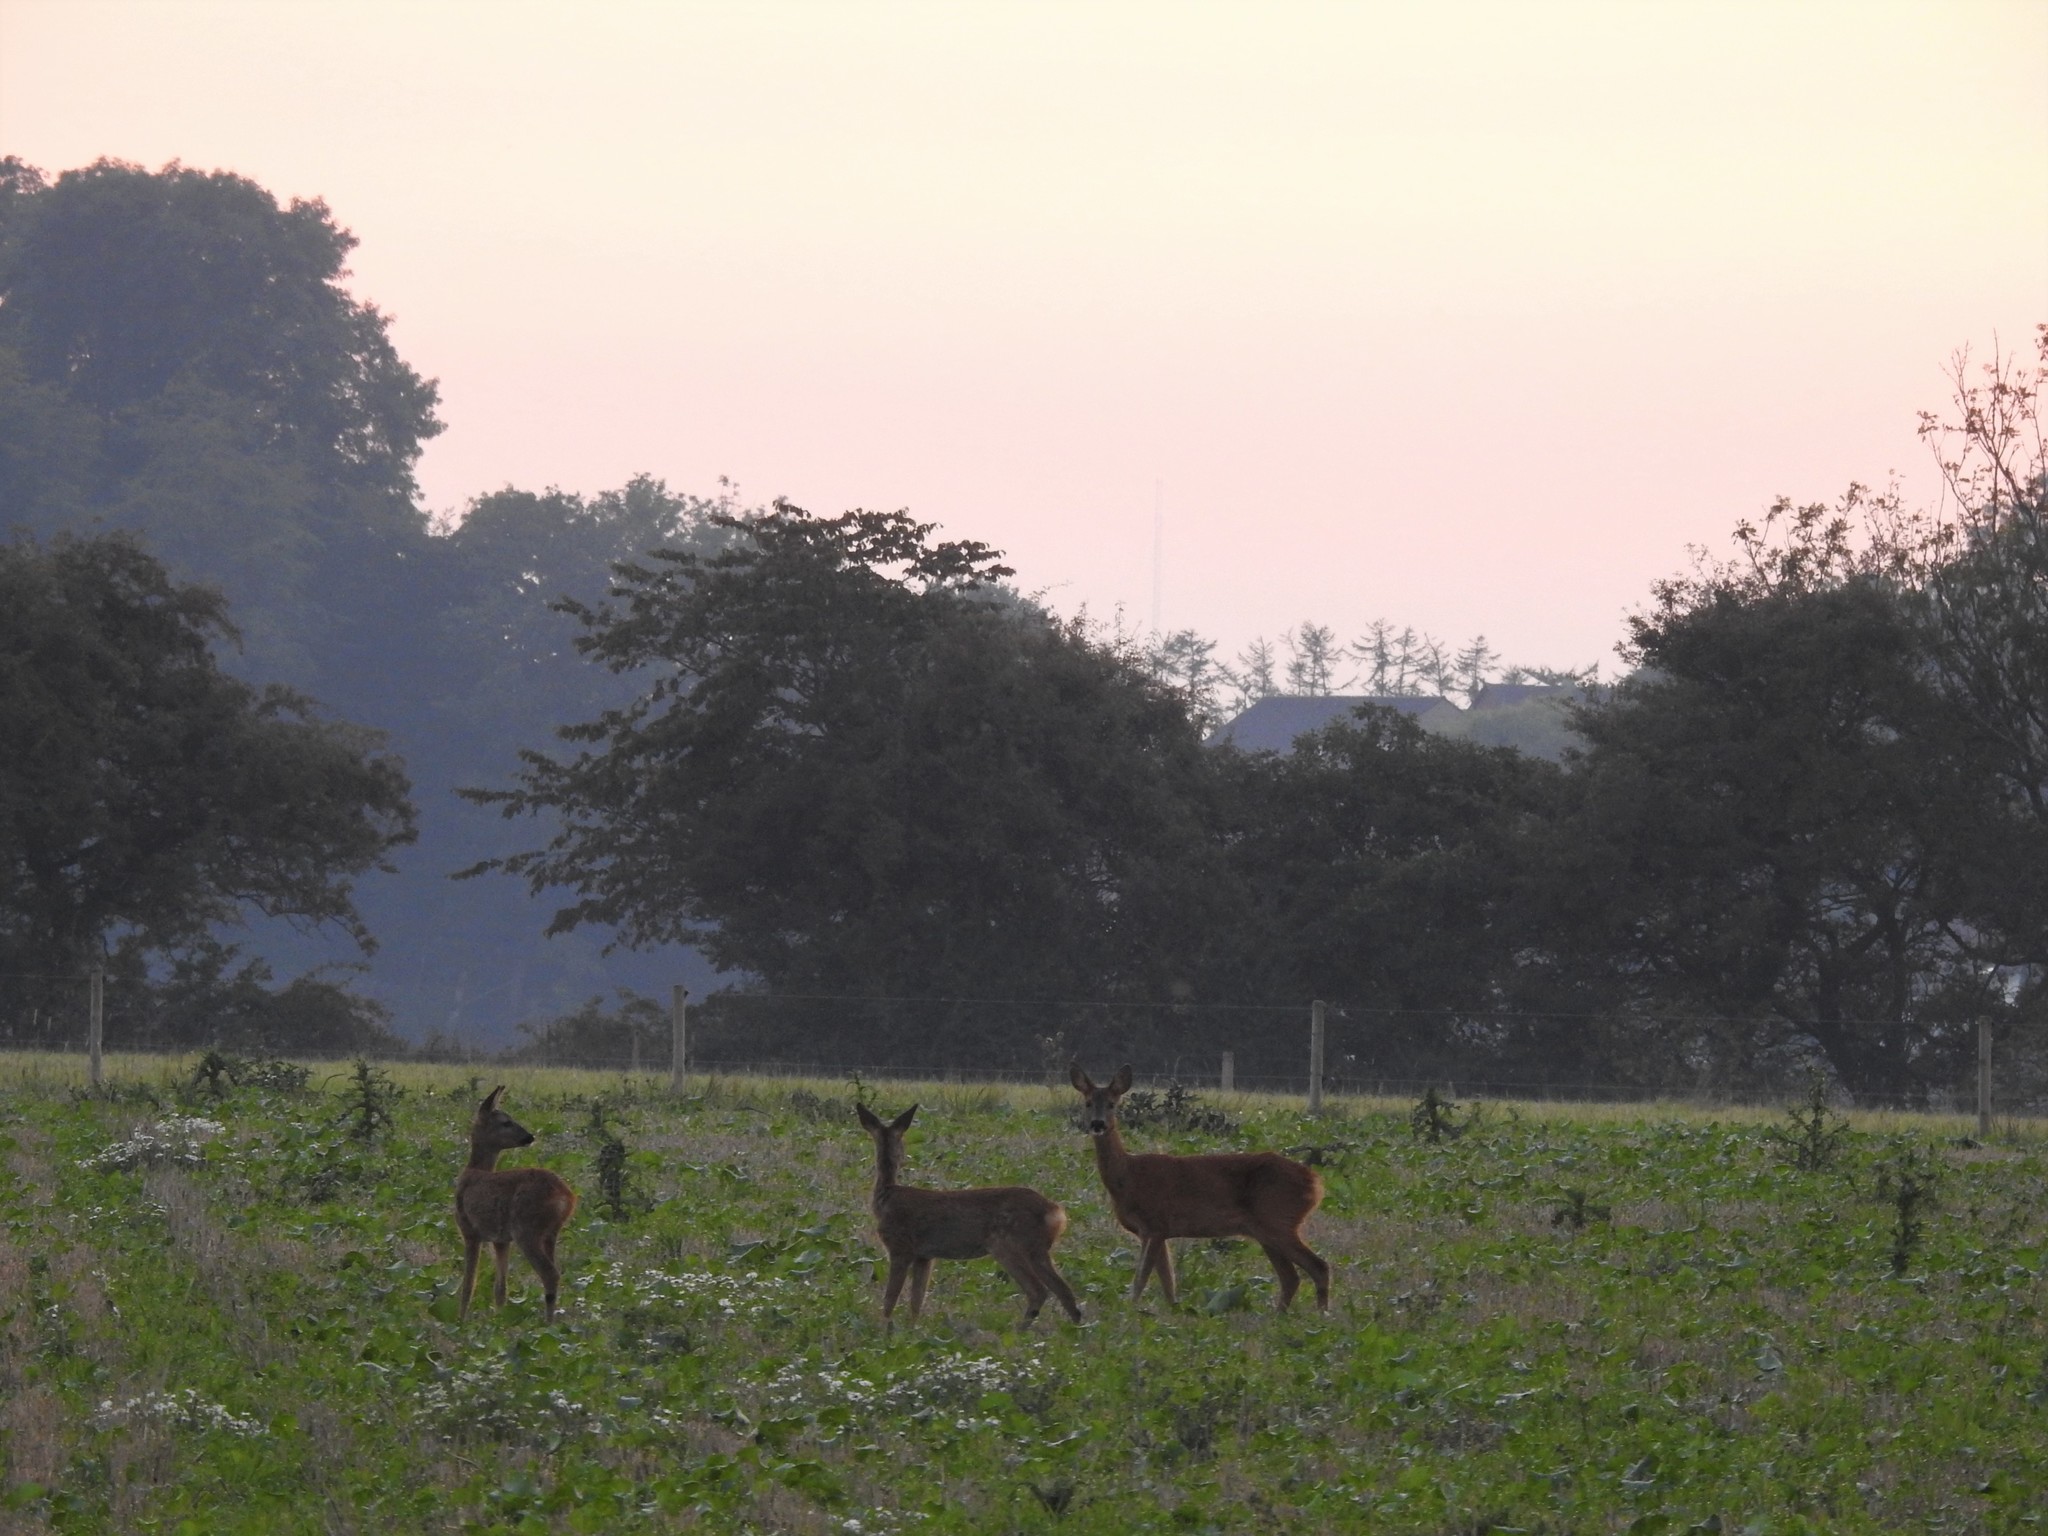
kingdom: Animalia
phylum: Chordata
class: Mammalia
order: Artiodactyla
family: Cervidae
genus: Capreolus
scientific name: Capreolus capreolus
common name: Western roe deer
